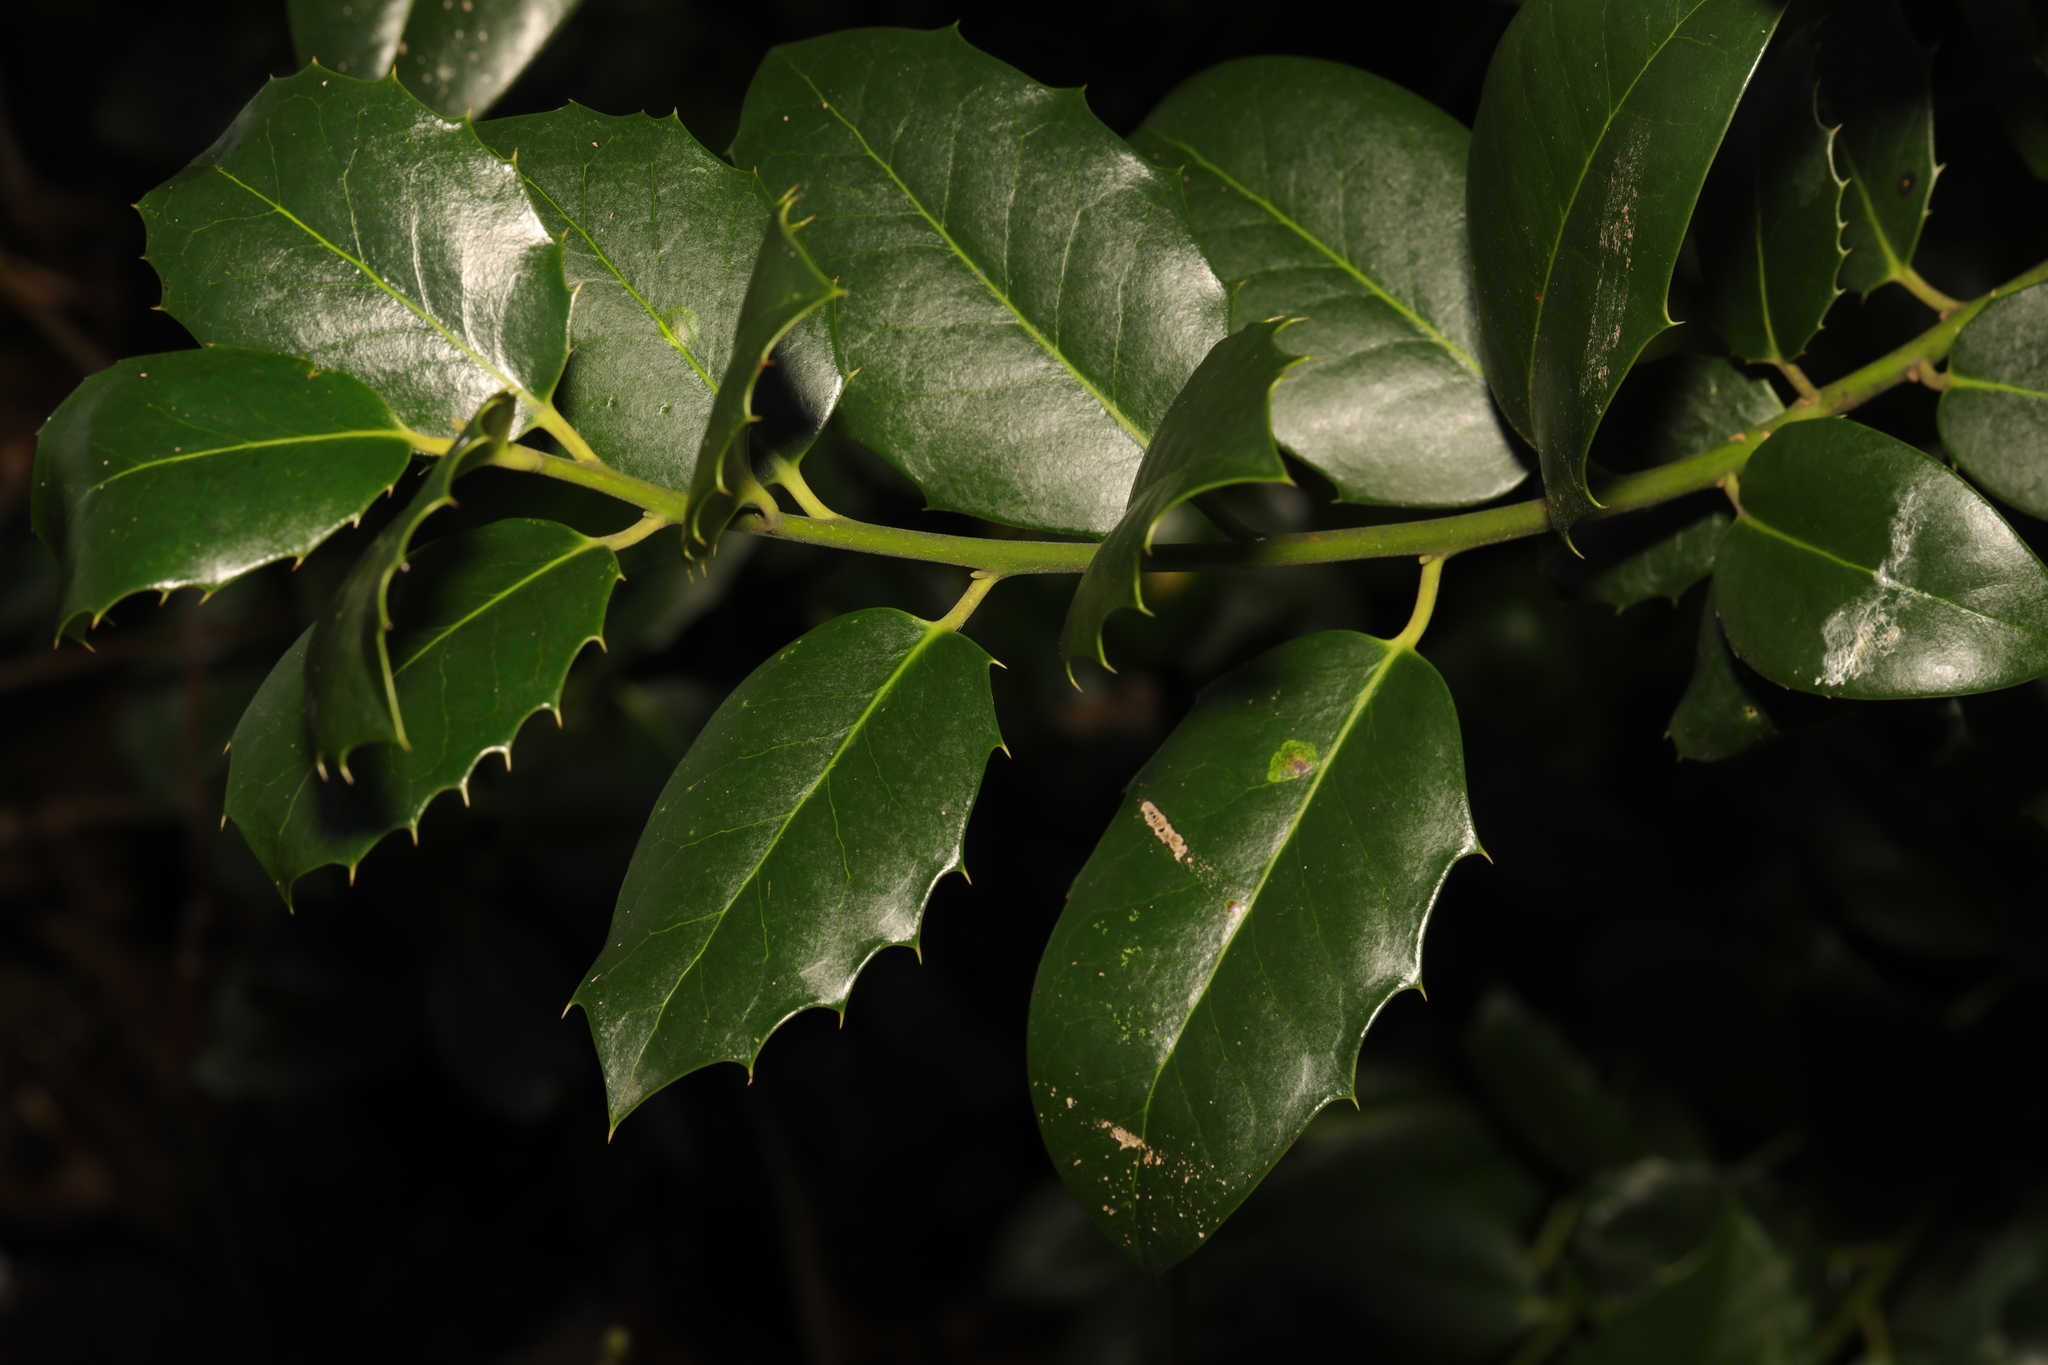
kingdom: Plantae
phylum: Tracheophyta
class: Magnoliopsida
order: Aquifoliales
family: Aquifoliaceae
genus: Ilex
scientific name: Ilex aquifolium
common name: English holly
